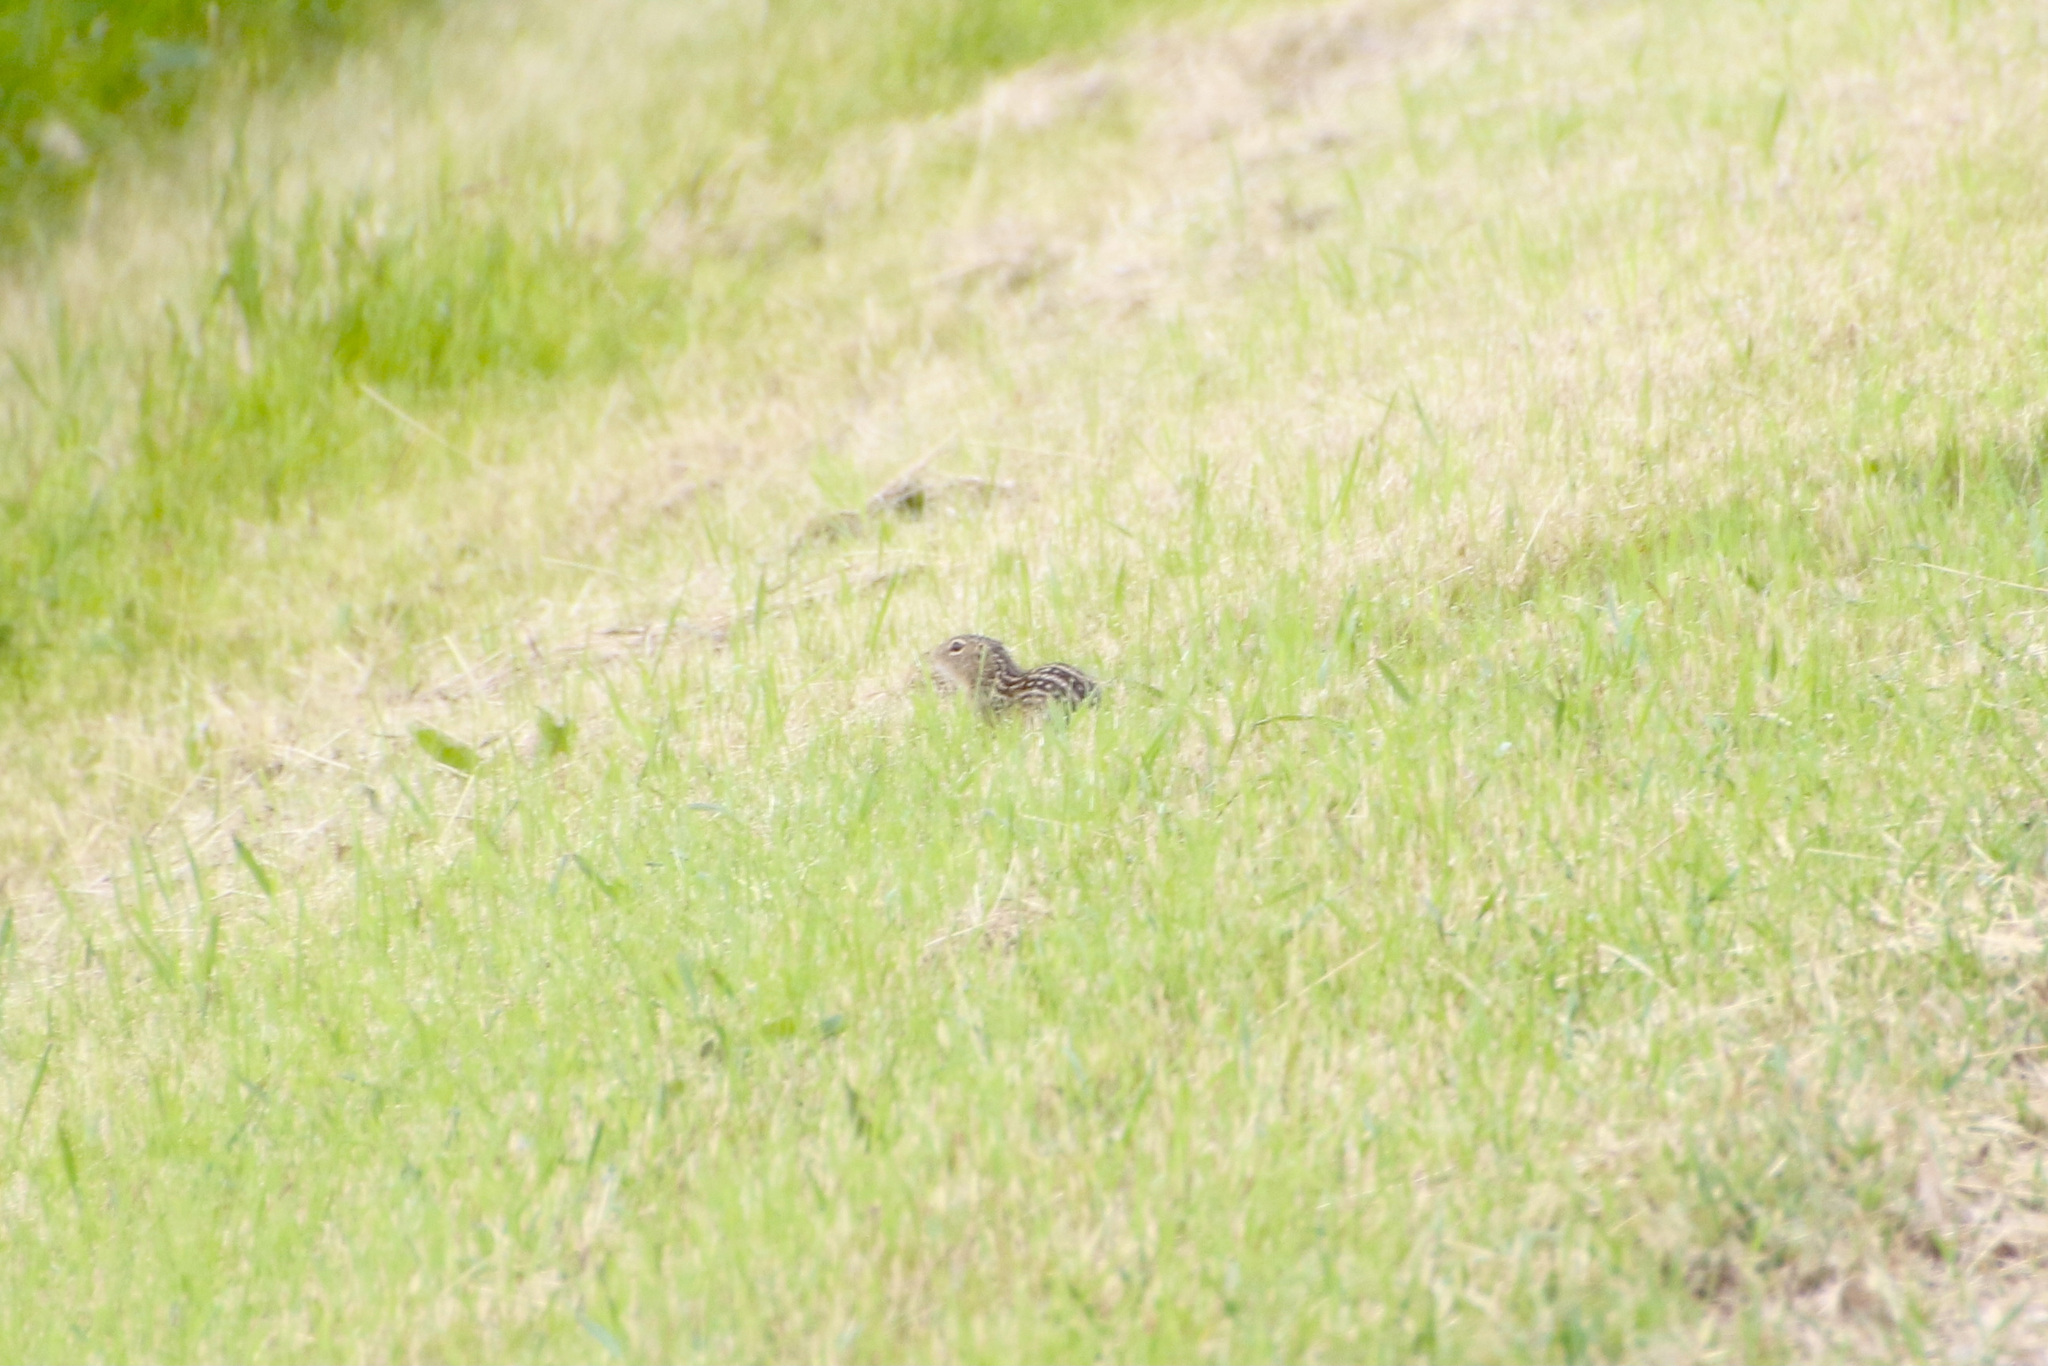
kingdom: Animalia
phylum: Chordata
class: Mammalia
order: Rodentia
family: Sciuridae
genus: Ictidomys
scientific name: Ictidomys tridecemlineatus
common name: Thirteen-lined ground squirrel
